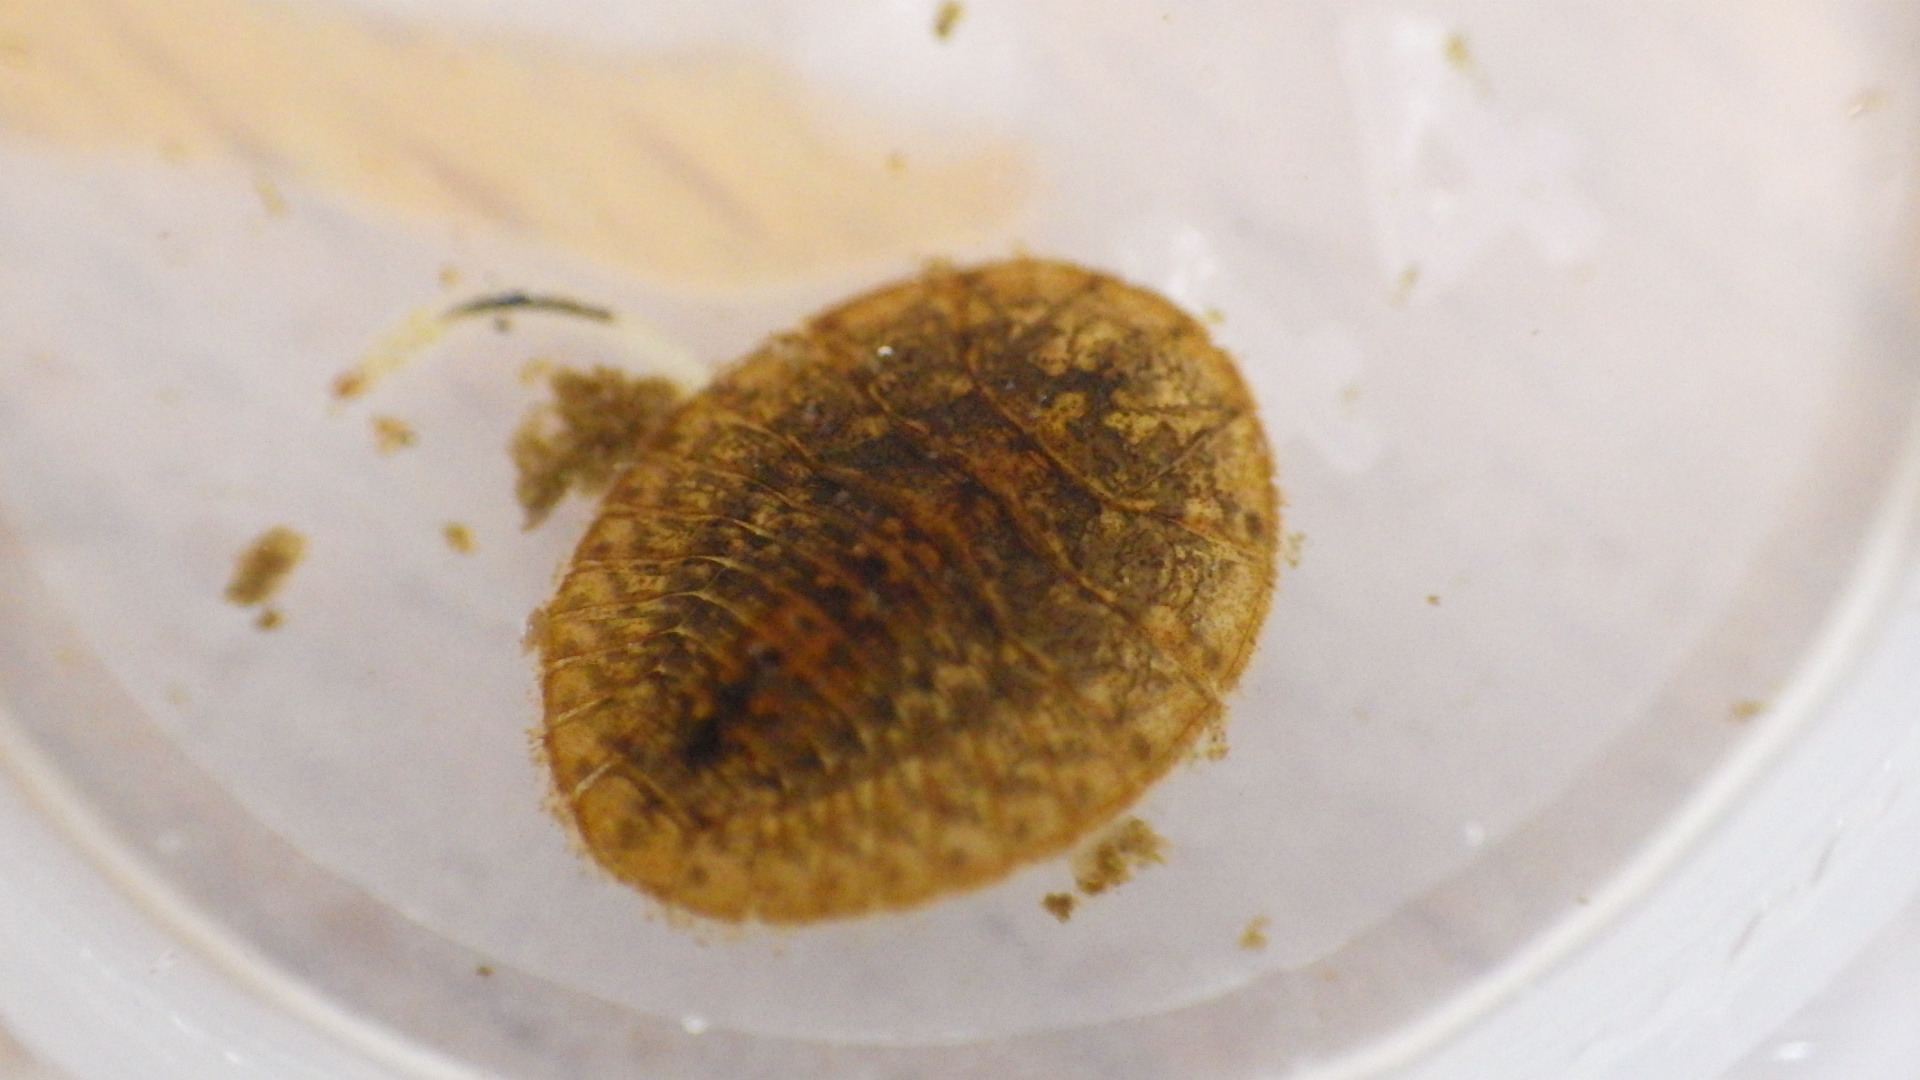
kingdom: Animalia
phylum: Arthropoda
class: Insecta
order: Coleoptera
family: Psephenidae
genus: Psephenus
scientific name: Psephenus herricki
